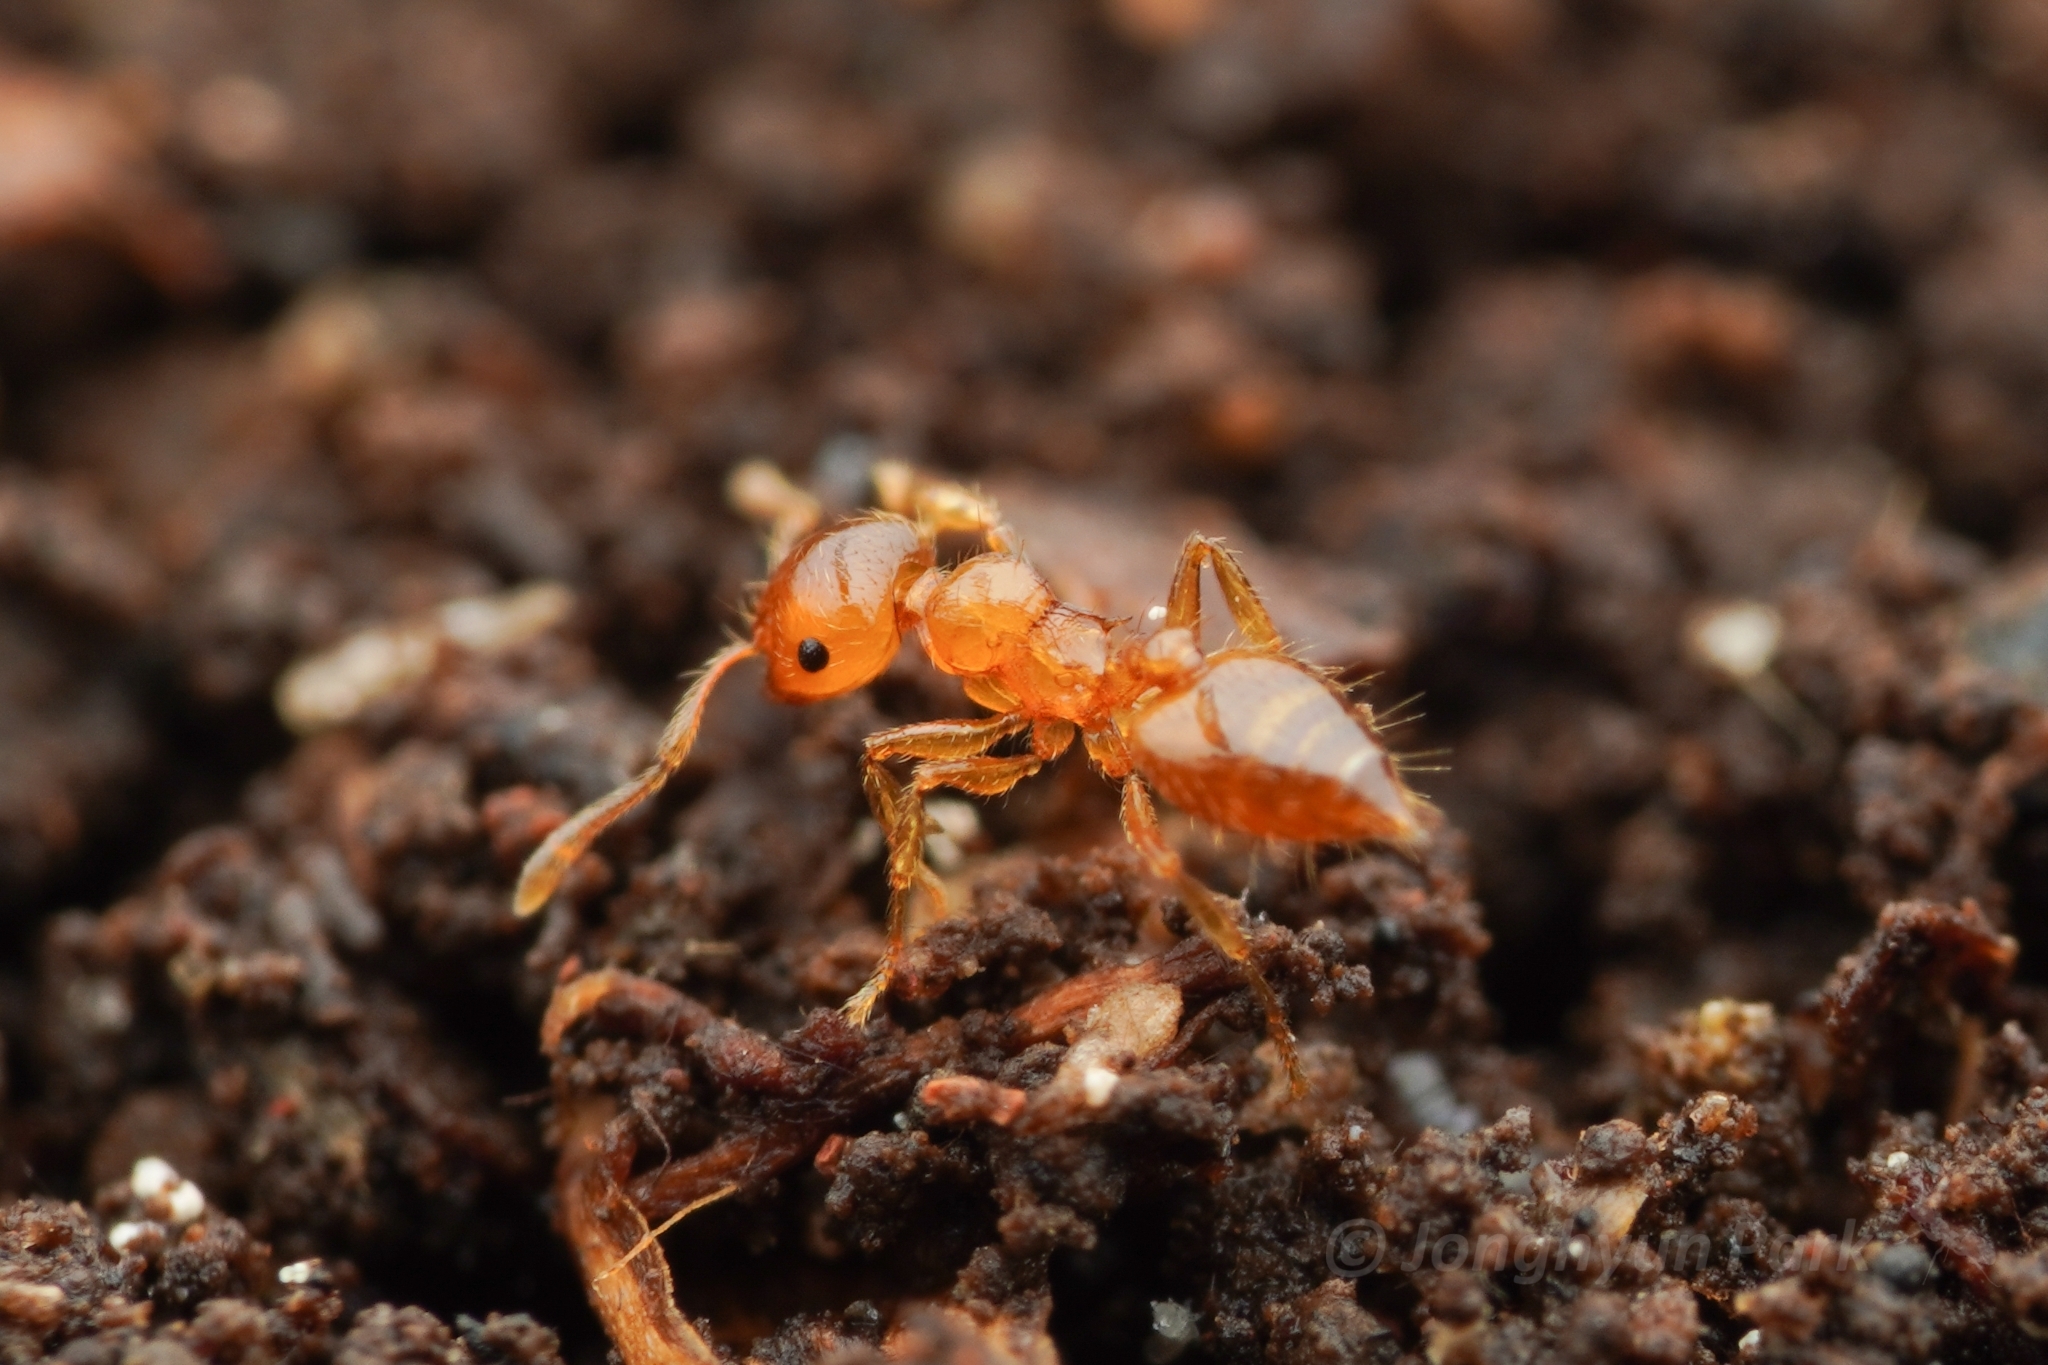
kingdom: Animalia
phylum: Arthropoda
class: Insecta
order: Hymenoptera
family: Formicidae
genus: Crematogaster
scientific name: Crematogaster osakensis
